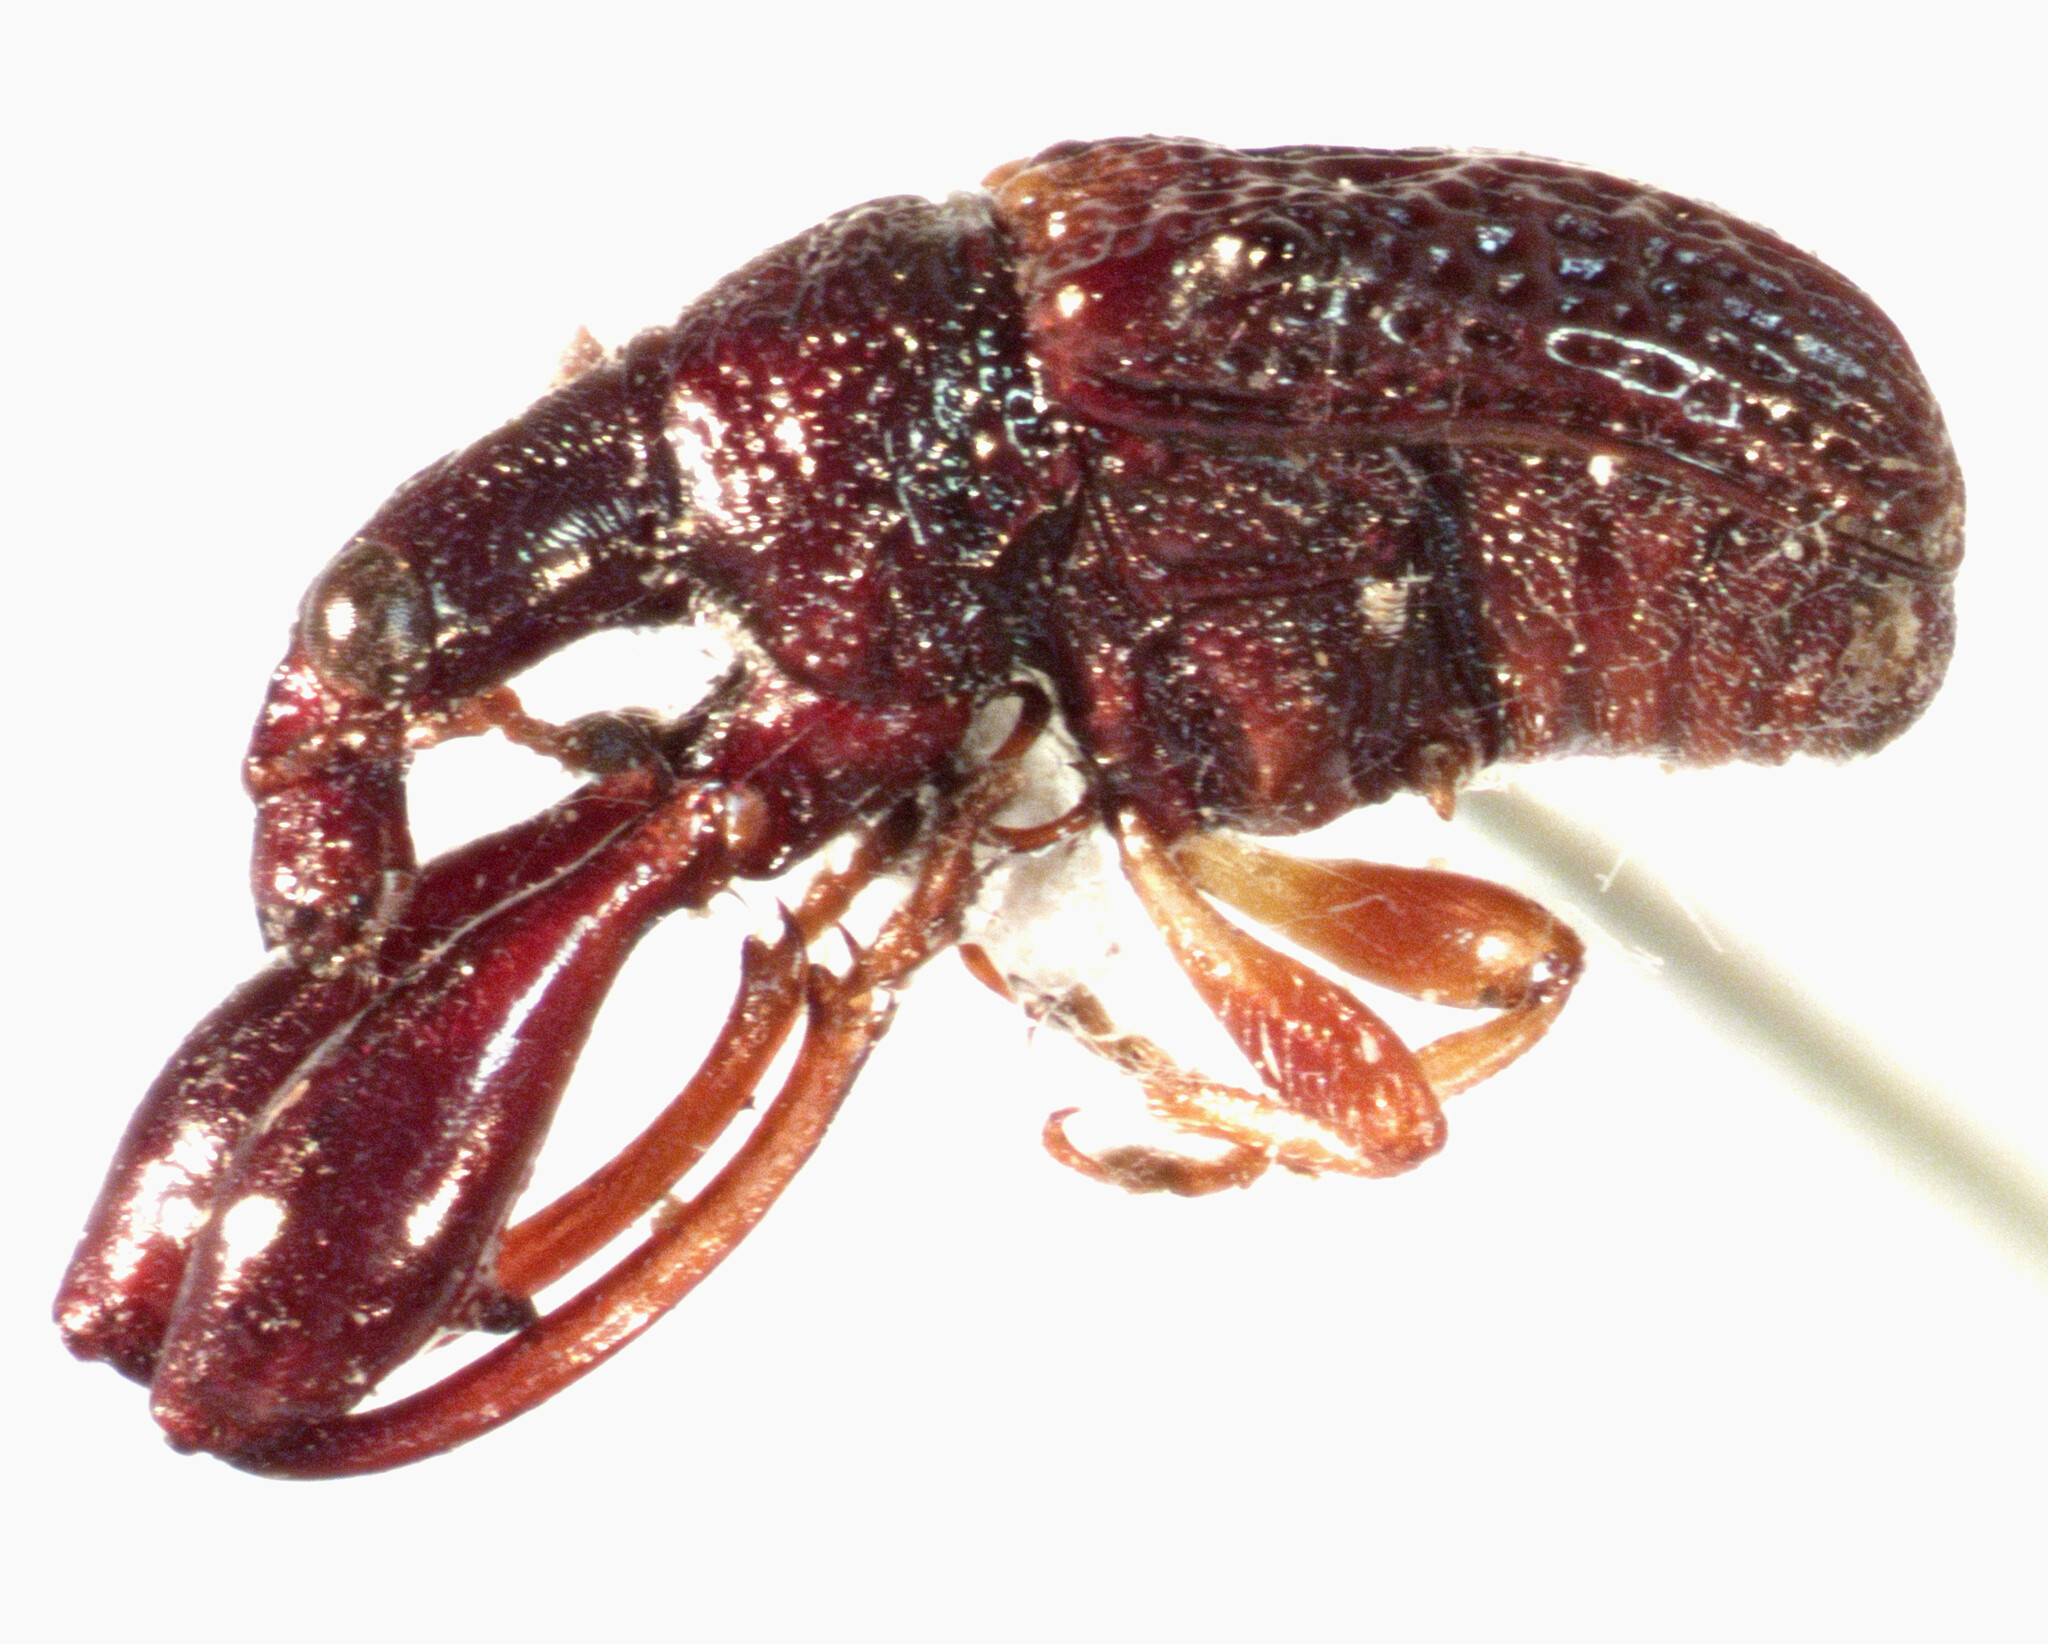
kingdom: Animalia
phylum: Arthropoda
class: Insecta
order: Coleoptera
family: Attelabidae
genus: Euscelus
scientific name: Euscelus dentipes
